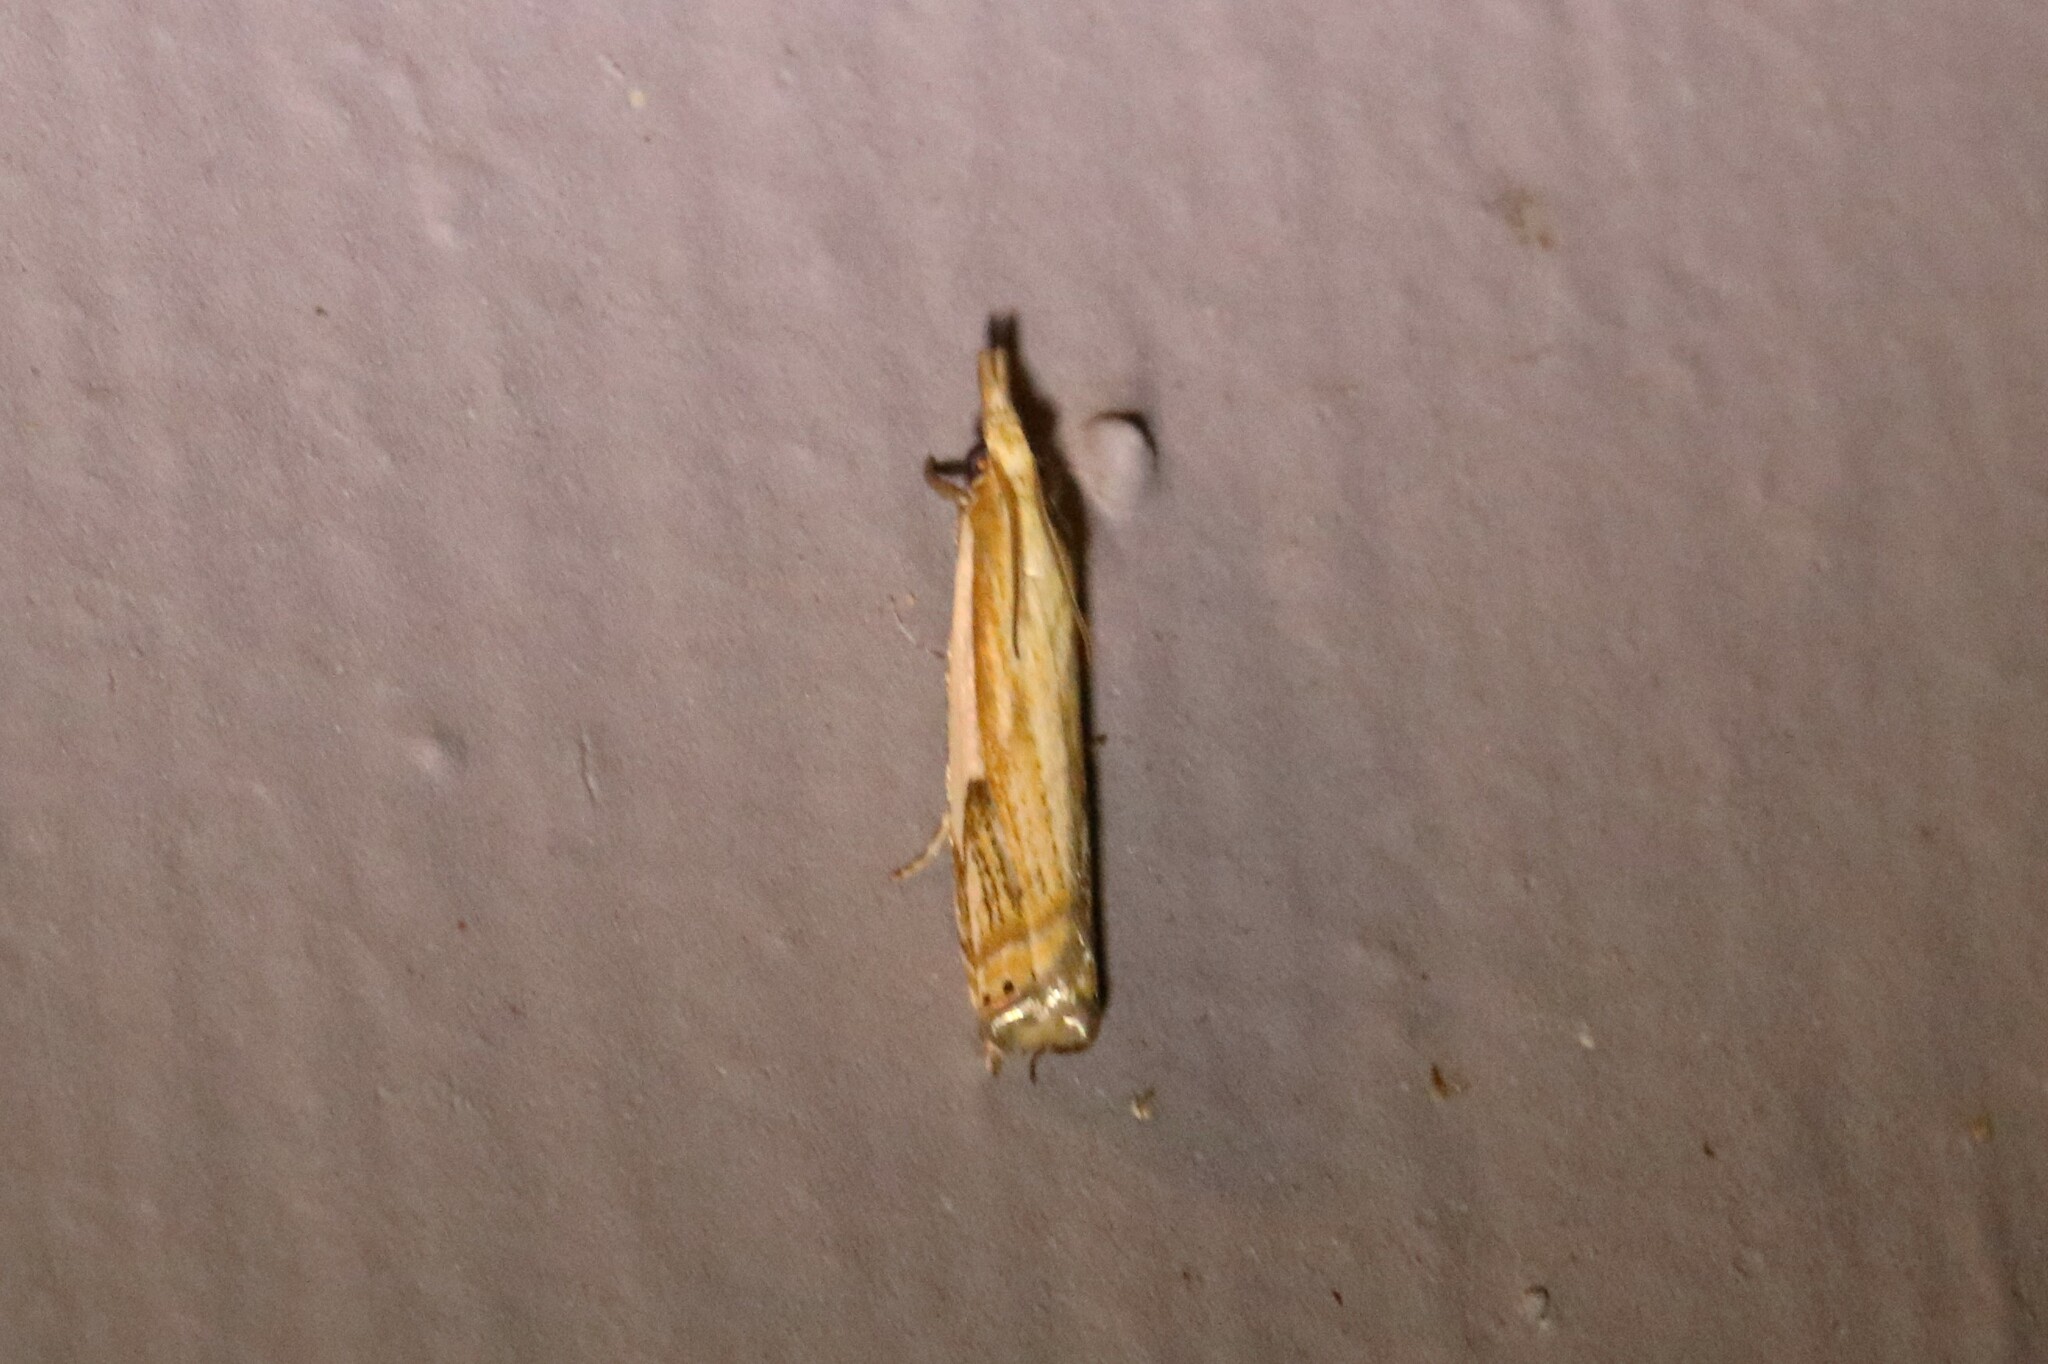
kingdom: Animalia
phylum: Arthropoda
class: Insecta
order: Lepidoptera
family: Crambidae
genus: Crambus
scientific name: Crambus agitatellus
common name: Double-banded grass-veneer
